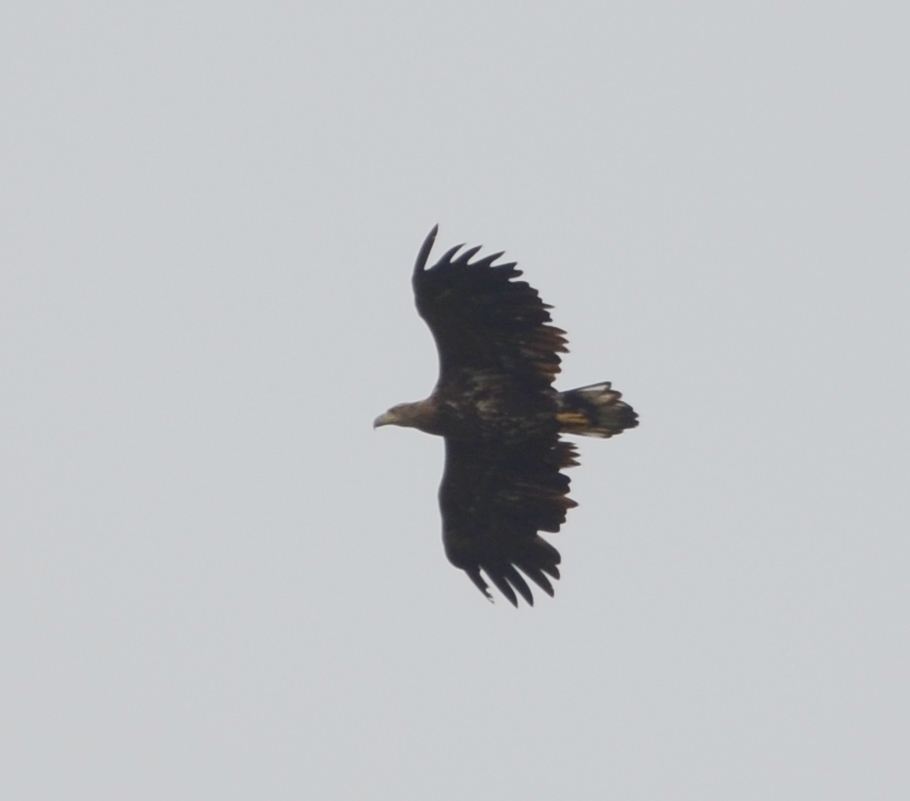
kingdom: Animalia
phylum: Chordata
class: Aves
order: Accipitriformes
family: Accipitridae
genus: Haliaeetus
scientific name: Haliaeetus albicilla
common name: White-tailed eagle
